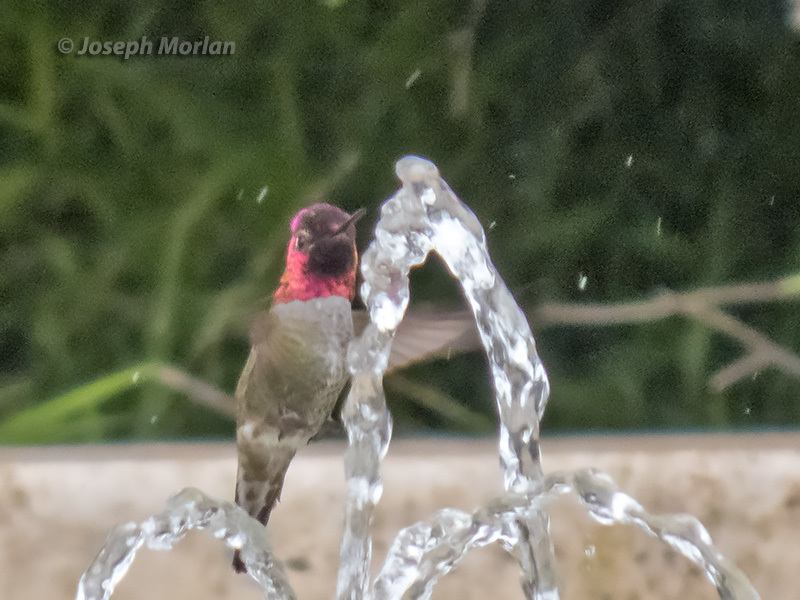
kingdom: Animalia
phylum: Chordata
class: Aves
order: Apodiformes
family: Trochilidae
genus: Calypte
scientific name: Calypte anna
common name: Anna's hummingbird
